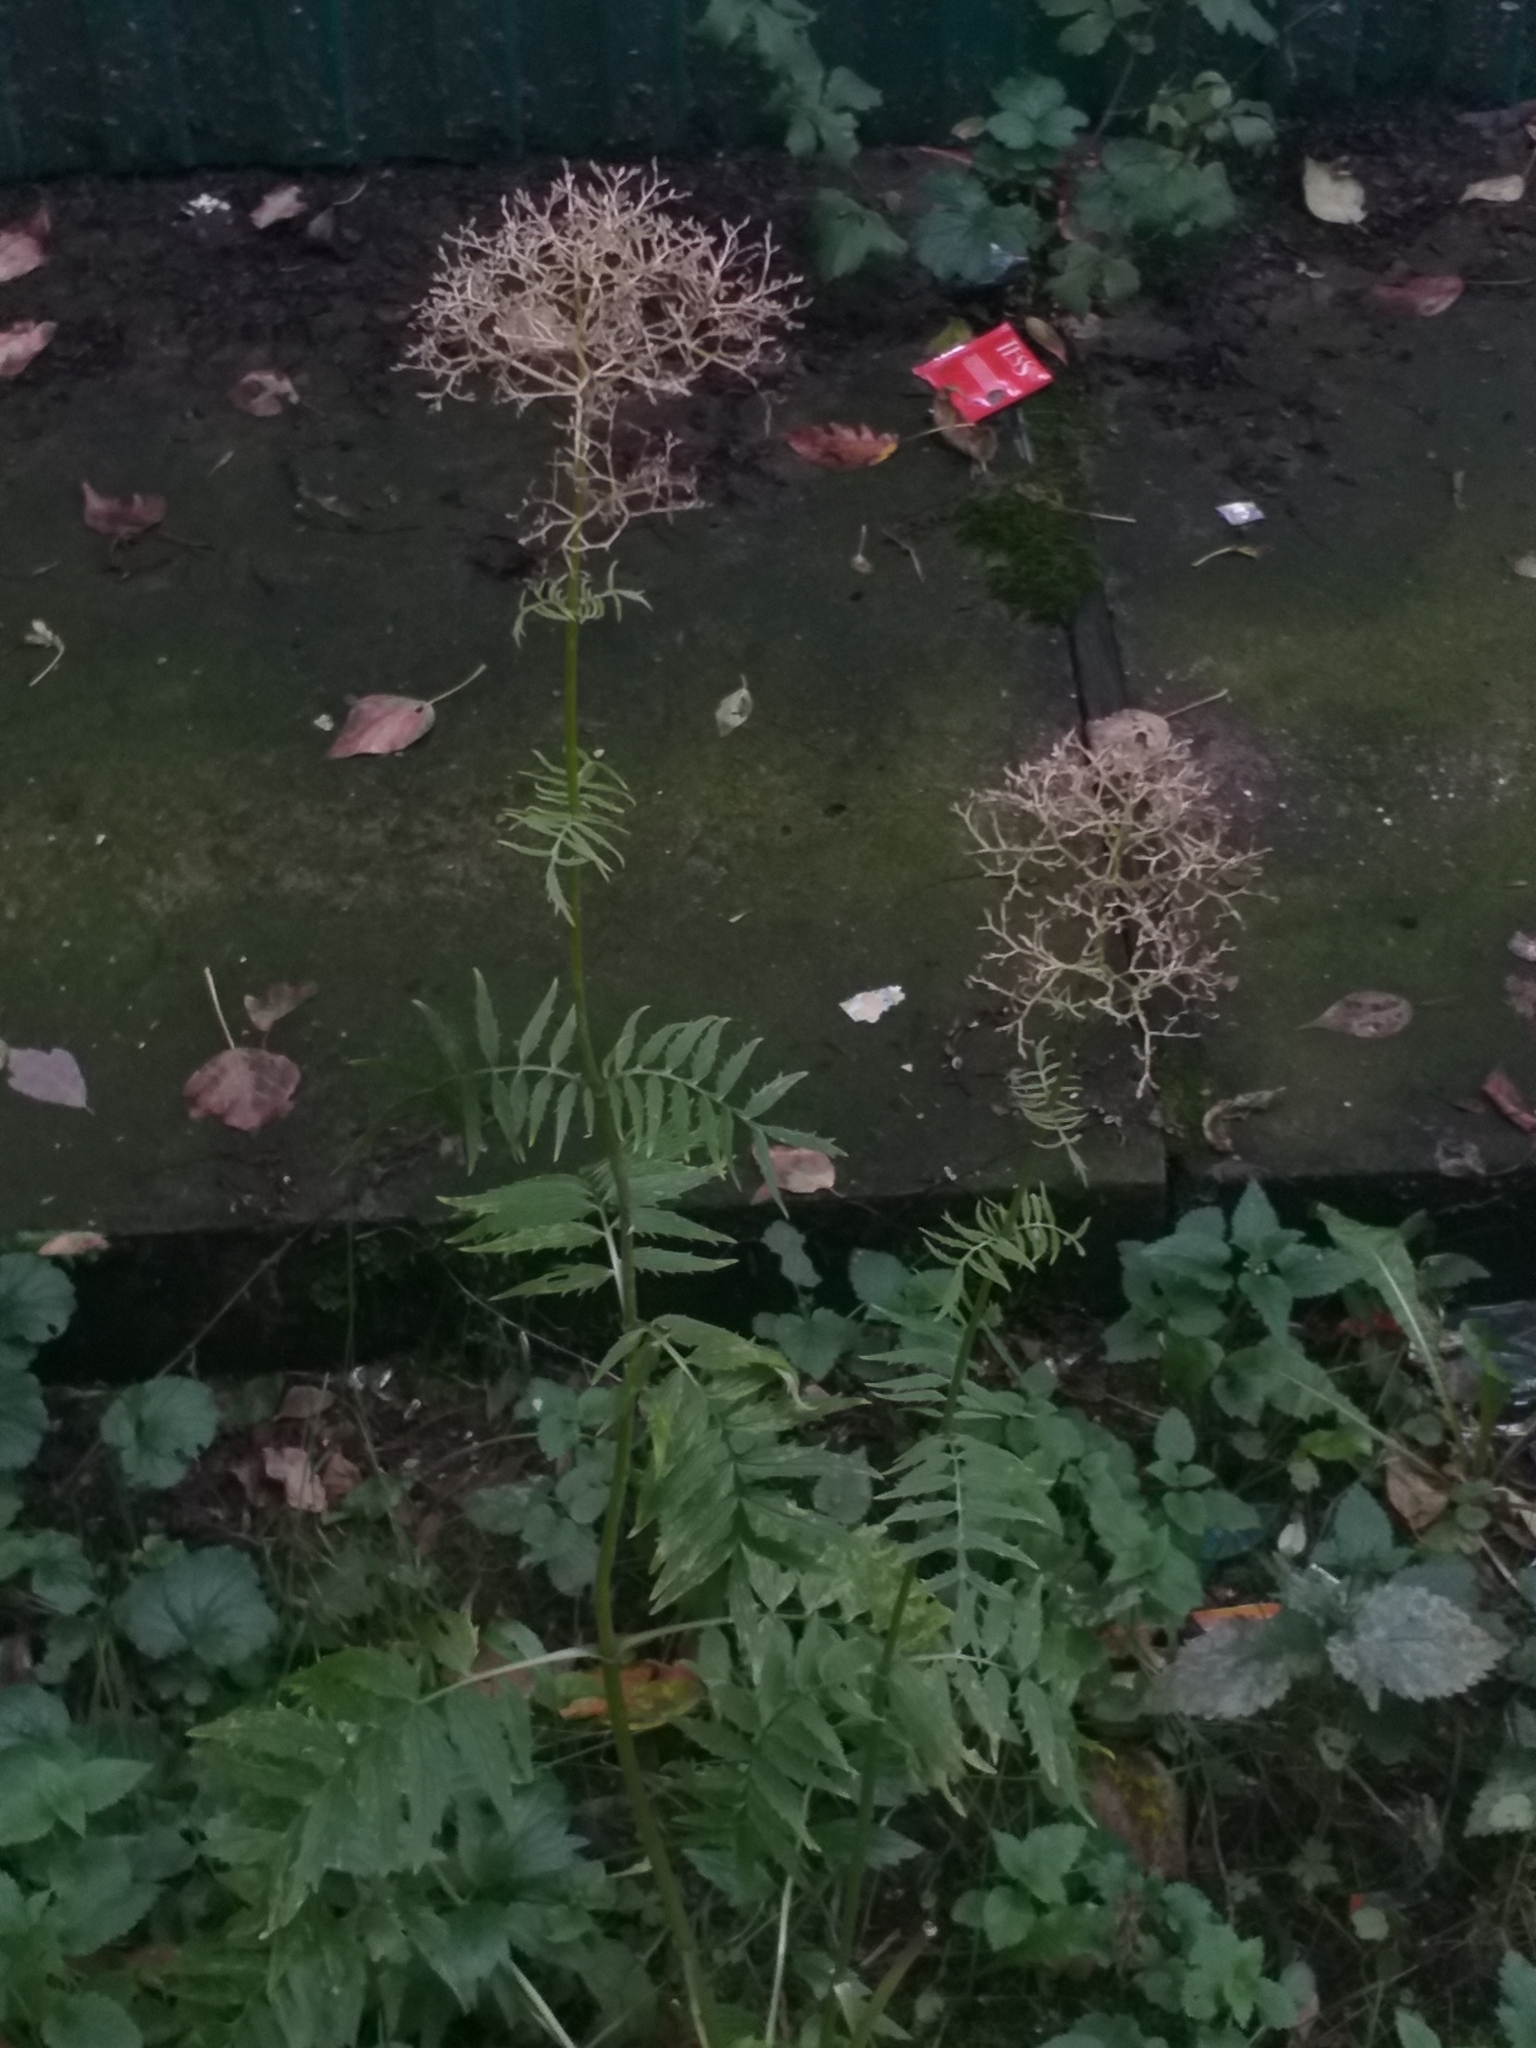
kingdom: Plantae
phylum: Tracheophyta
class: Magnoliopsida
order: Dipsacales
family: Caprifoliaceae
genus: Valeriana
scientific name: Valeriana officinalis
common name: Common valerian
